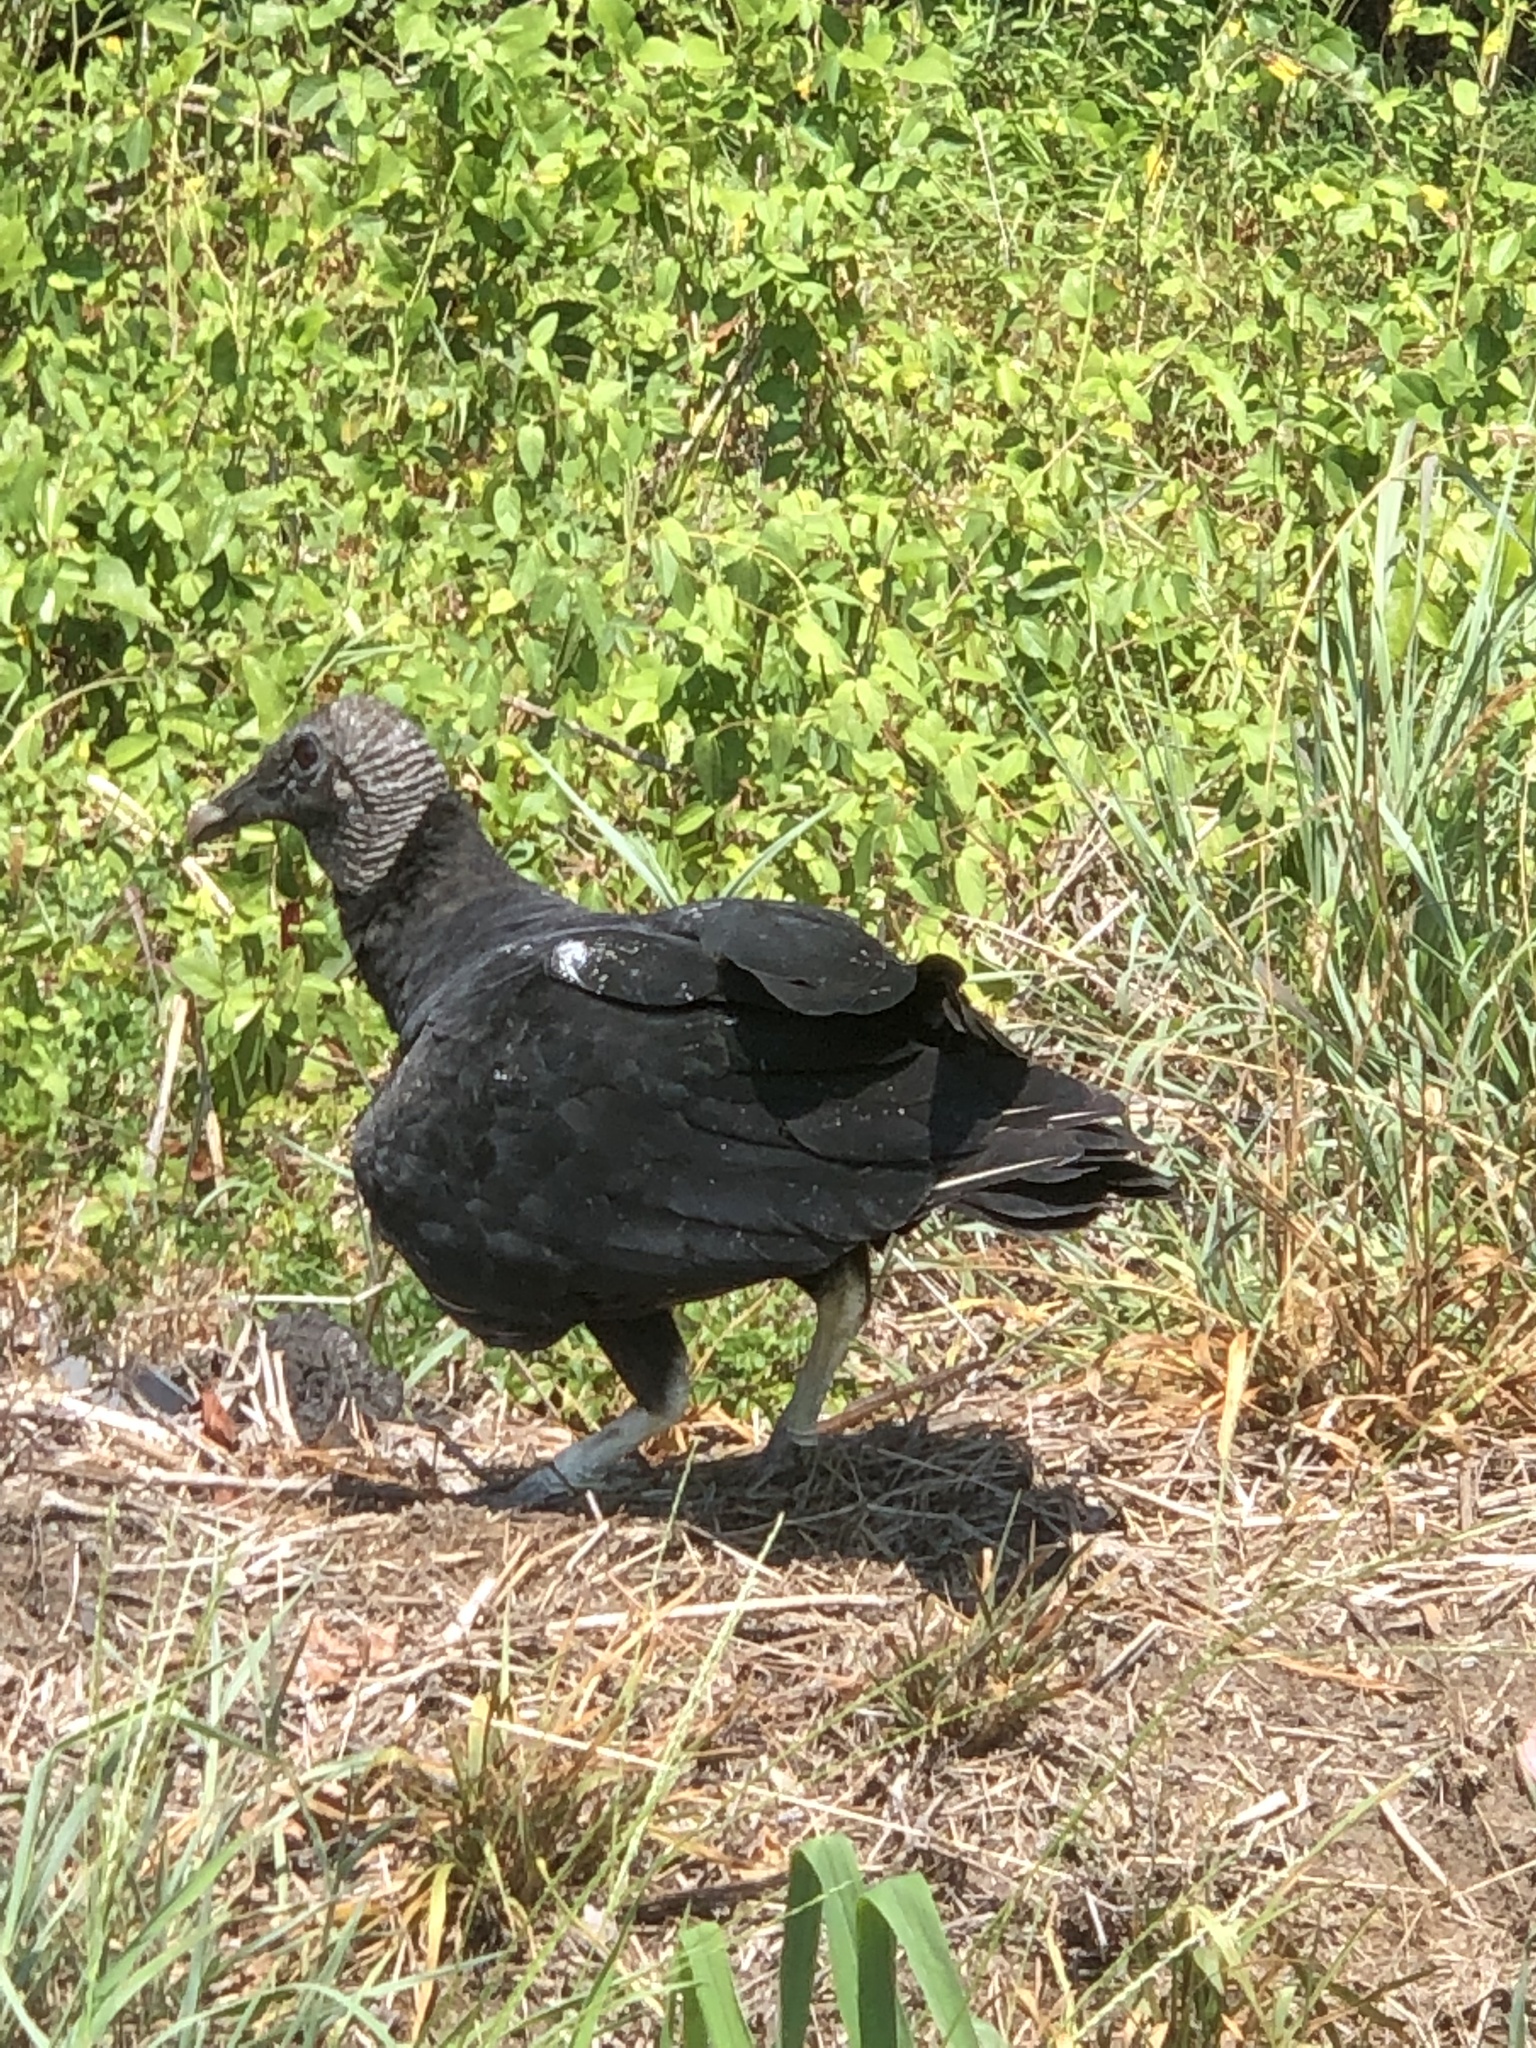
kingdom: Animalia
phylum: Chordata
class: Aves
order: Accipitriformes
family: Cathartidae
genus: Coragyps
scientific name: Coragyps atratus
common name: Black vulture
